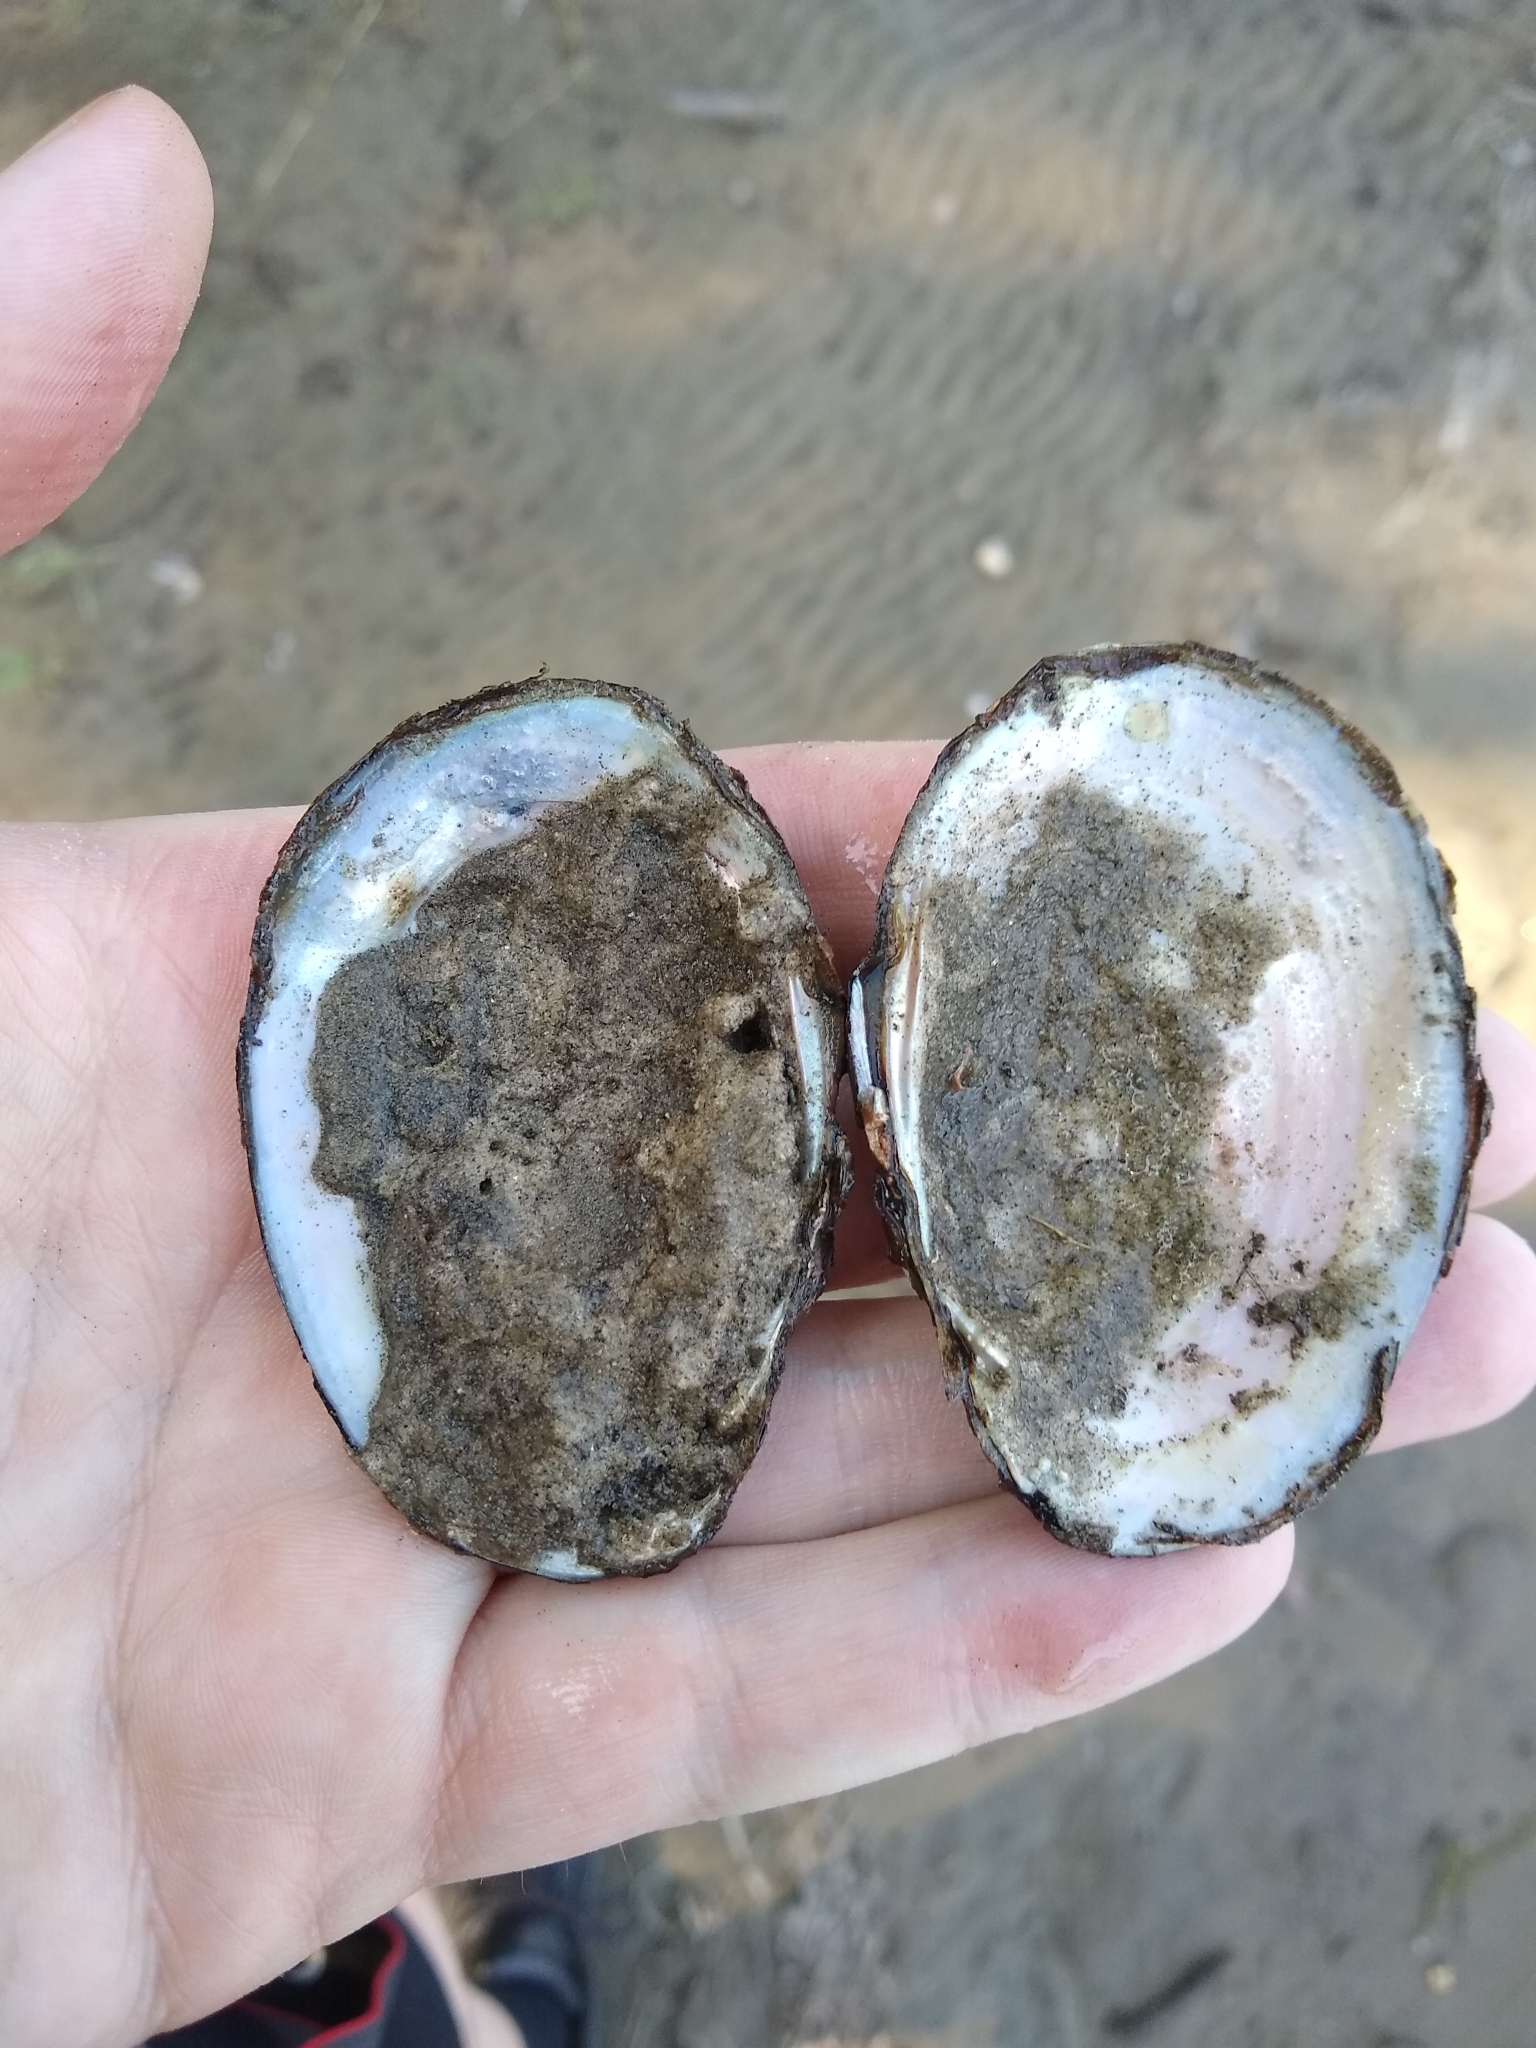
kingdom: Animalia
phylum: Mollusca
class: Bivalvia
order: Unionida
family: Unionidae
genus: Atlanticoncha
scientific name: Atlanticoncha ochracea
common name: Tidewater mucket
